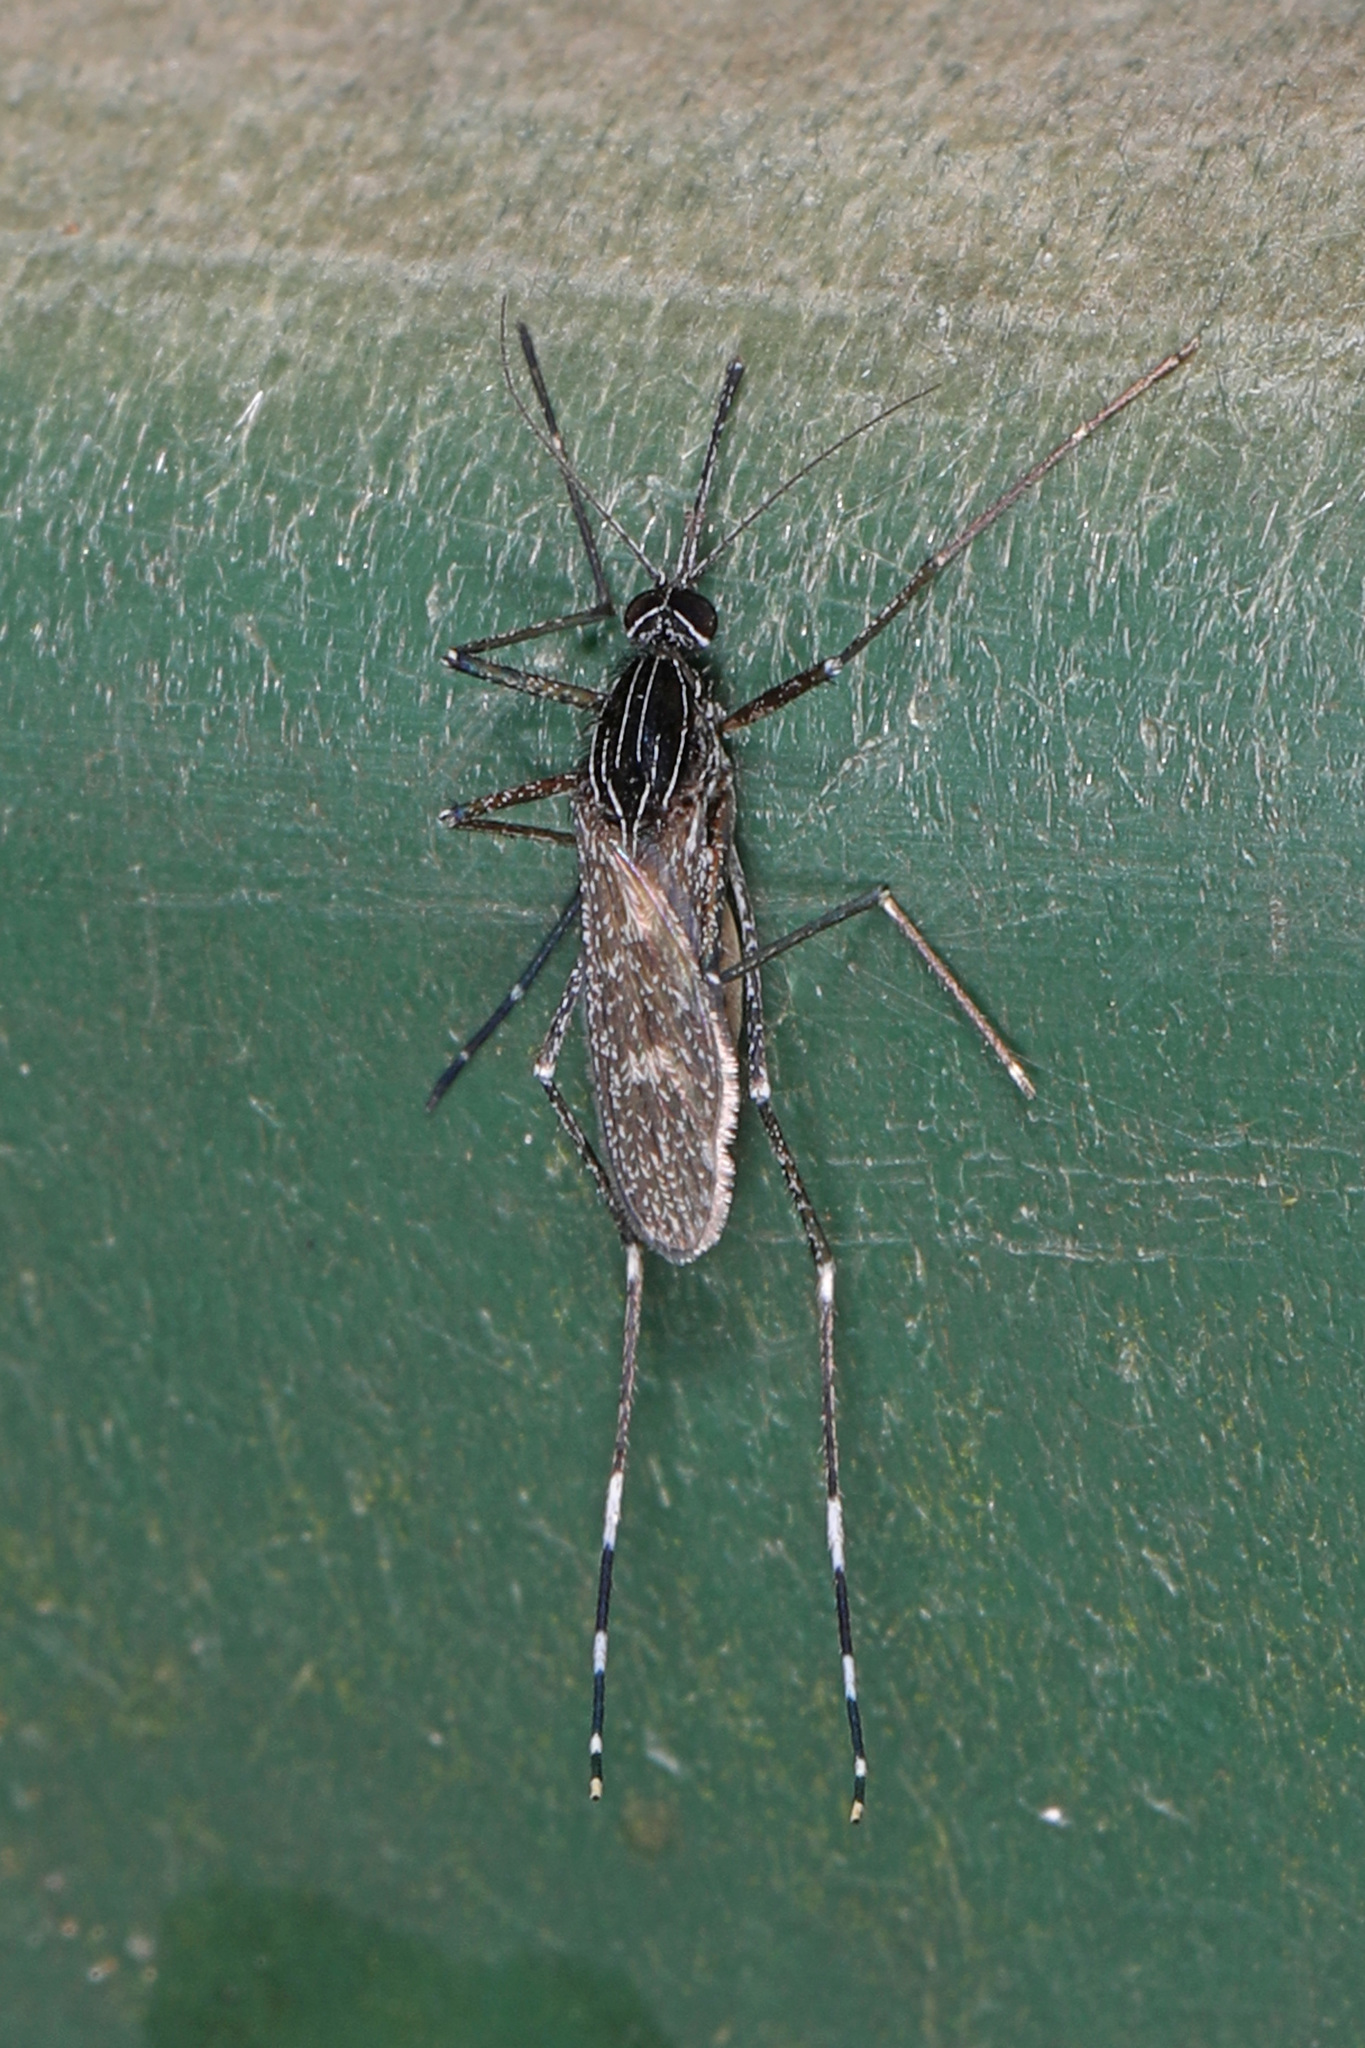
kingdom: Animalia
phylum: Arthropoda
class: Insecta
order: Diptera
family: Culicidae
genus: Orthopodomyia
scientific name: Orthopodomyia signifera
